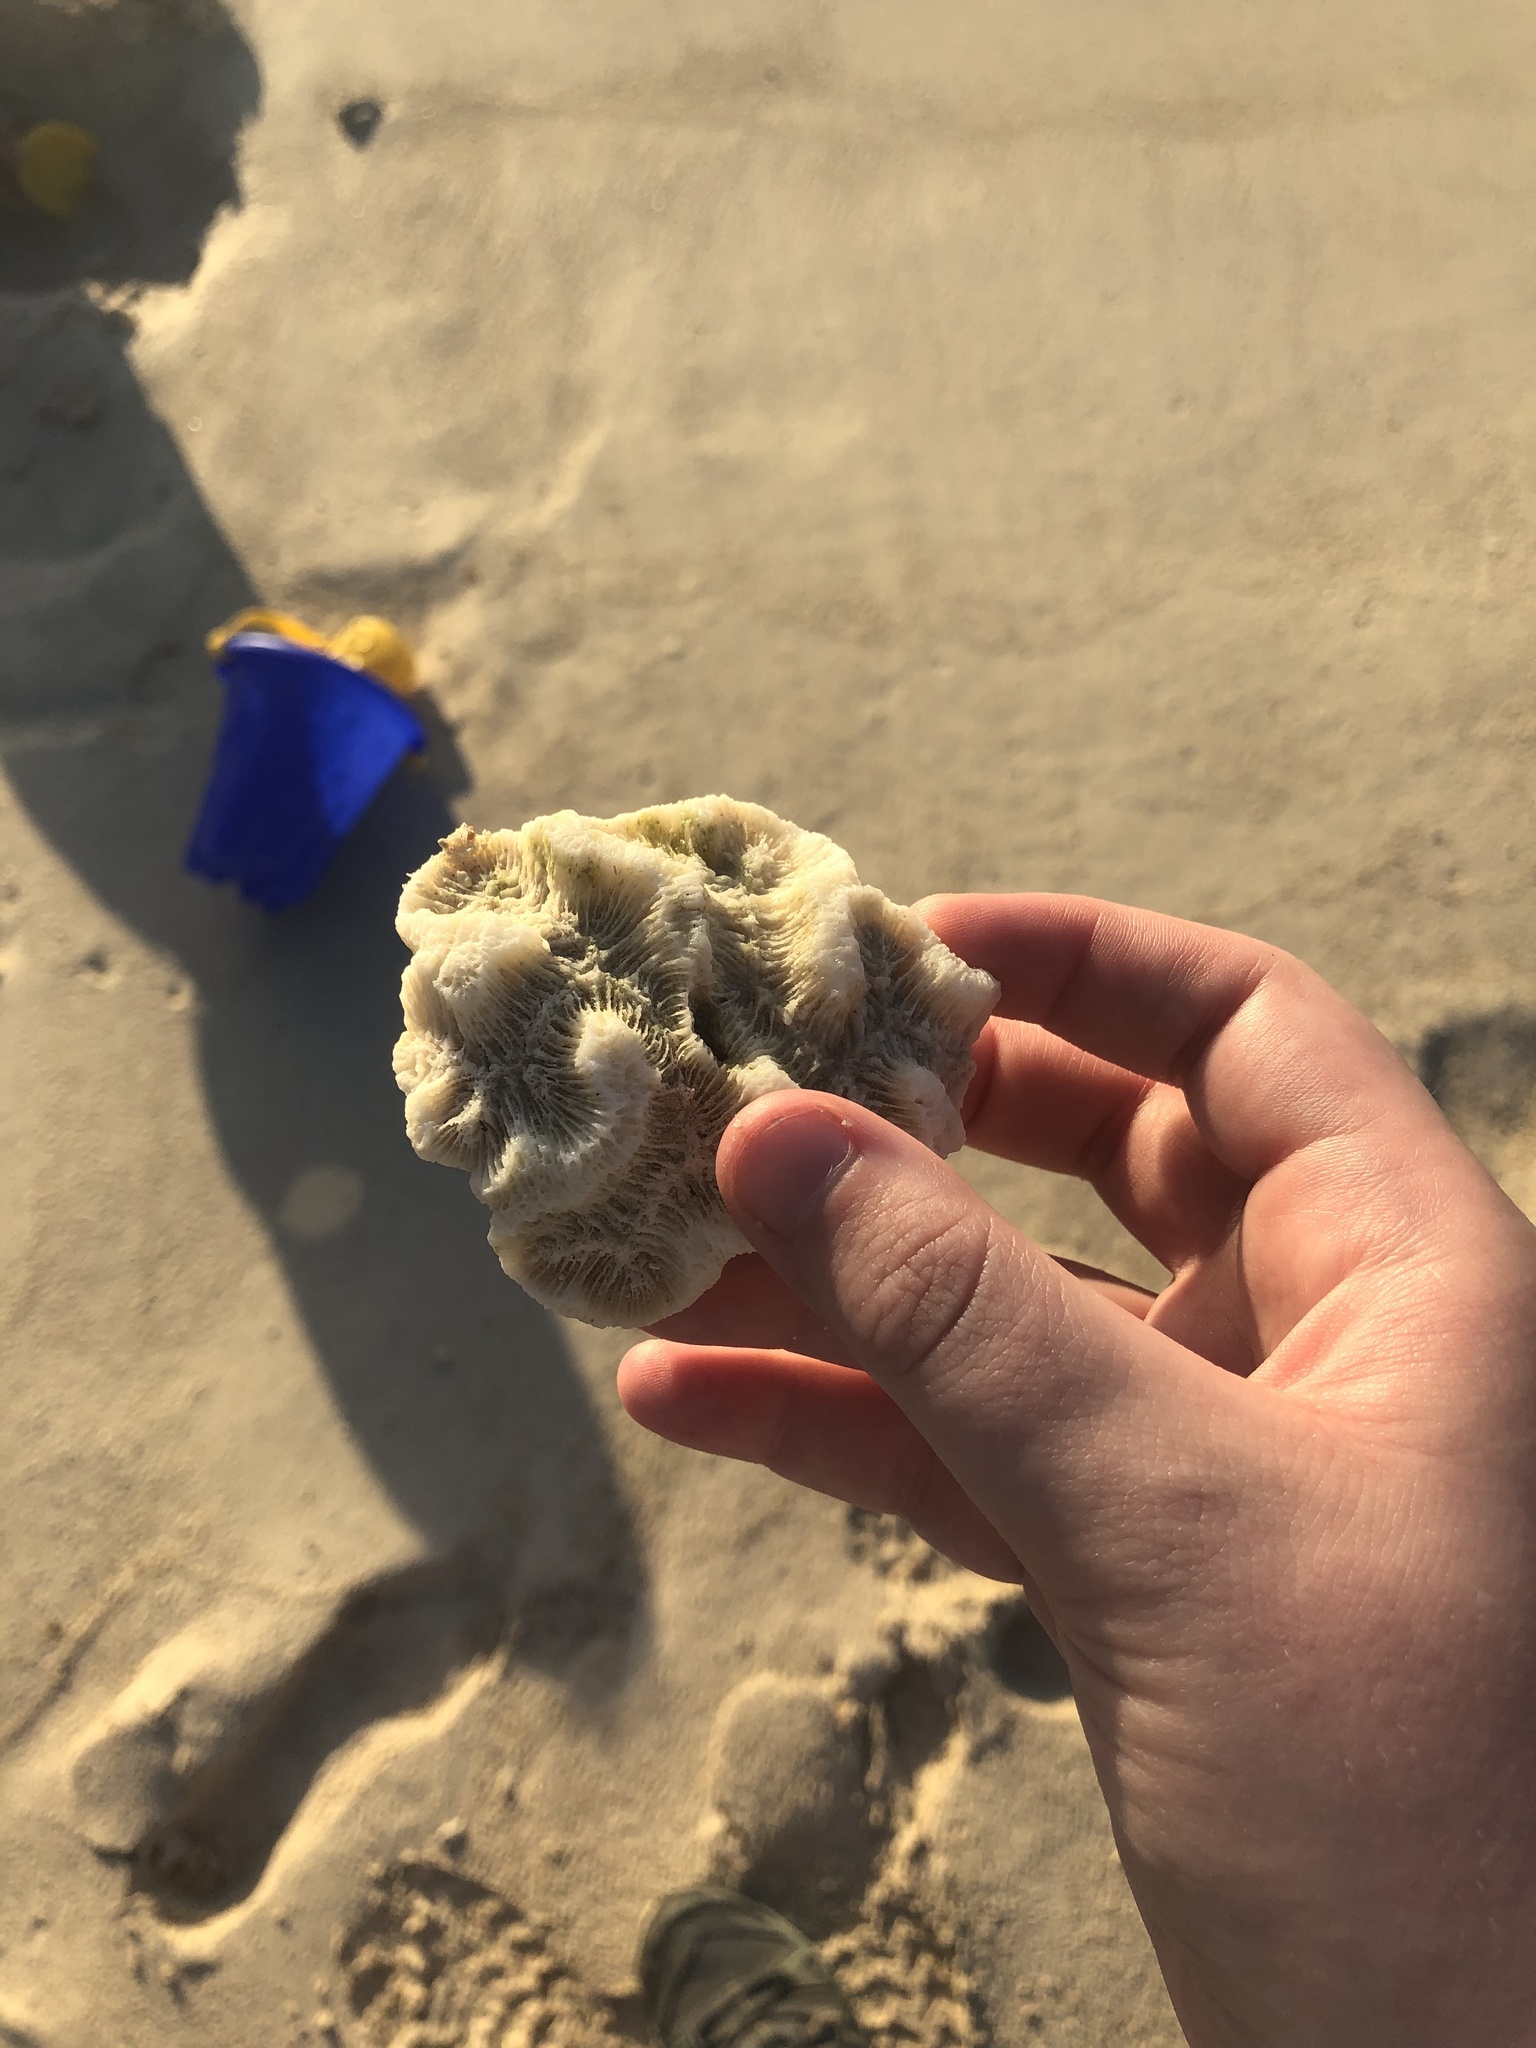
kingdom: Animalia
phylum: Cnidaria
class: Anthozoa
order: Scleractinia
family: Faviidae
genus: Manicina
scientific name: Manicina areolata
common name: Rose coral
